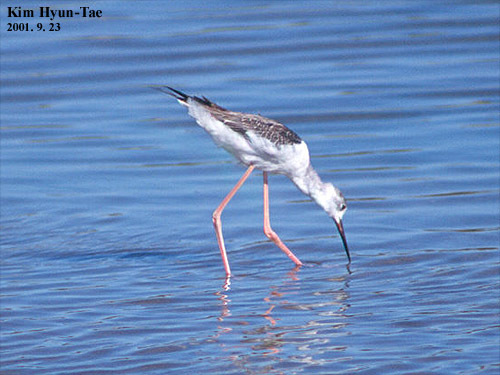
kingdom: Animalia
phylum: Chordata
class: Aves
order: Charadriiformes
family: Recurvirostridae
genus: Himantopus
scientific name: Himantopus himantopus
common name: Black-winged stilt
